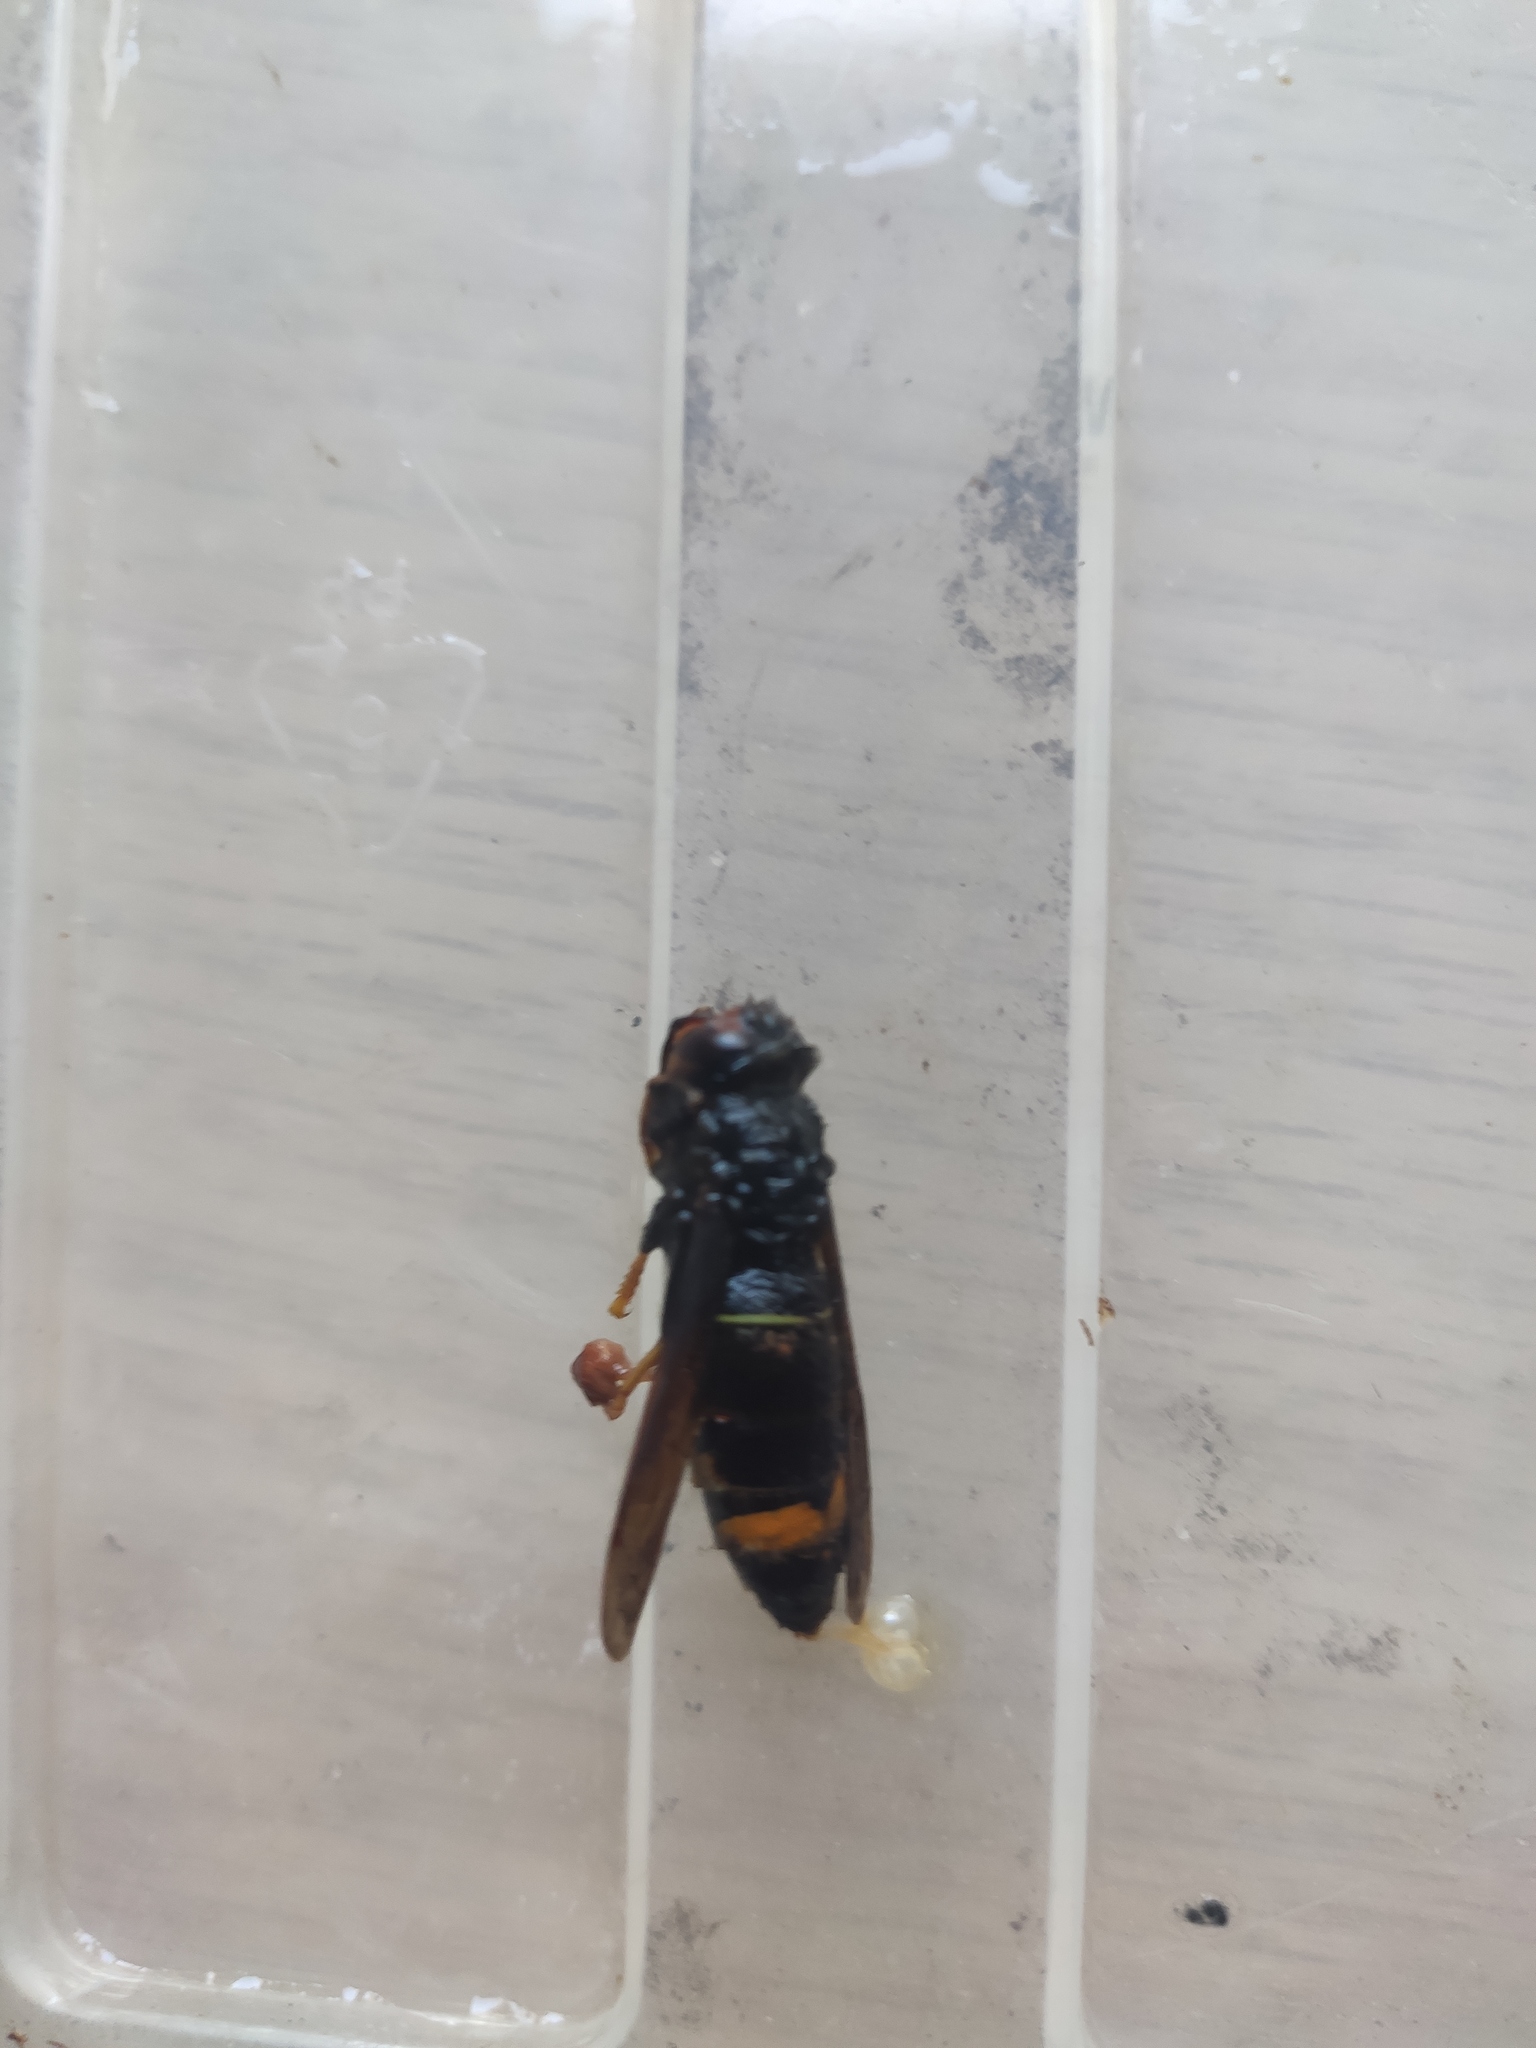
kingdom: Animalia
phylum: Arthropoda
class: Insecta
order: Hymenoptera
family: Vespidae
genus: Vespa
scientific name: Vespa velutina
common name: Asian hornet
